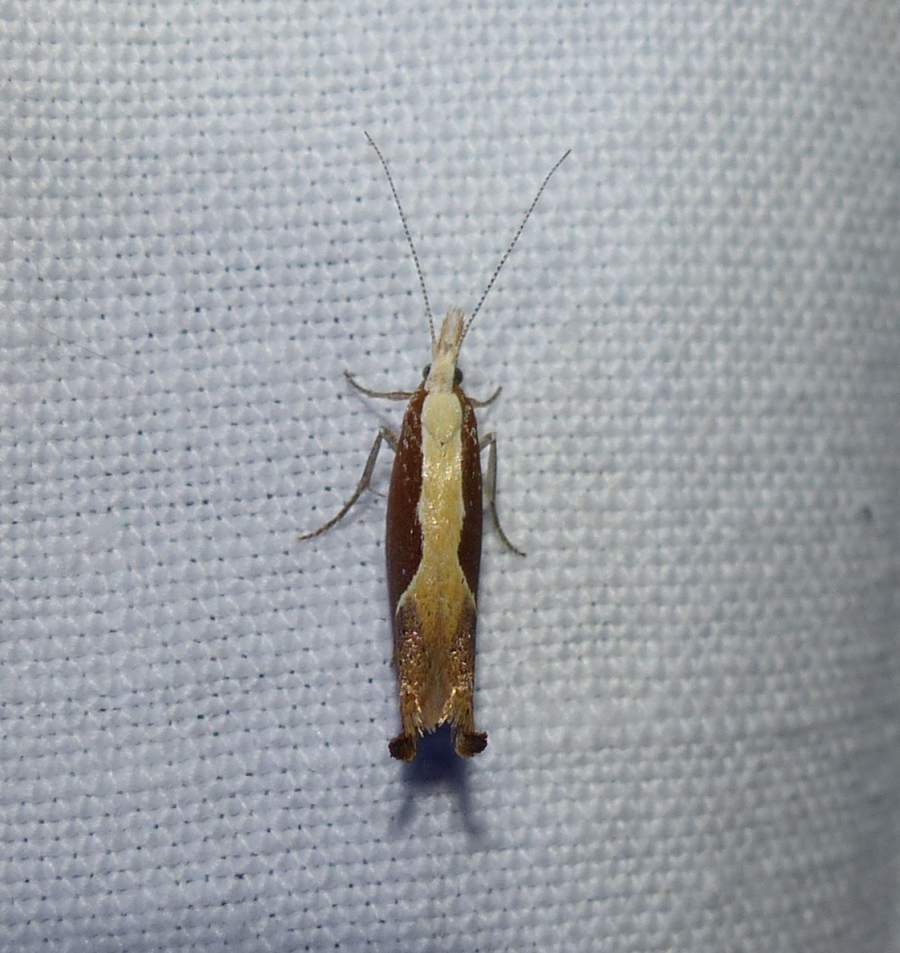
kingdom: Animalia
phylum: Arthropoda
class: Insecta
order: Lepidoptera
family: Ypsolophidae
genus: Ypsolopha
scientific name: Ypsolopha dentella
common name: Honeysuckle moth
